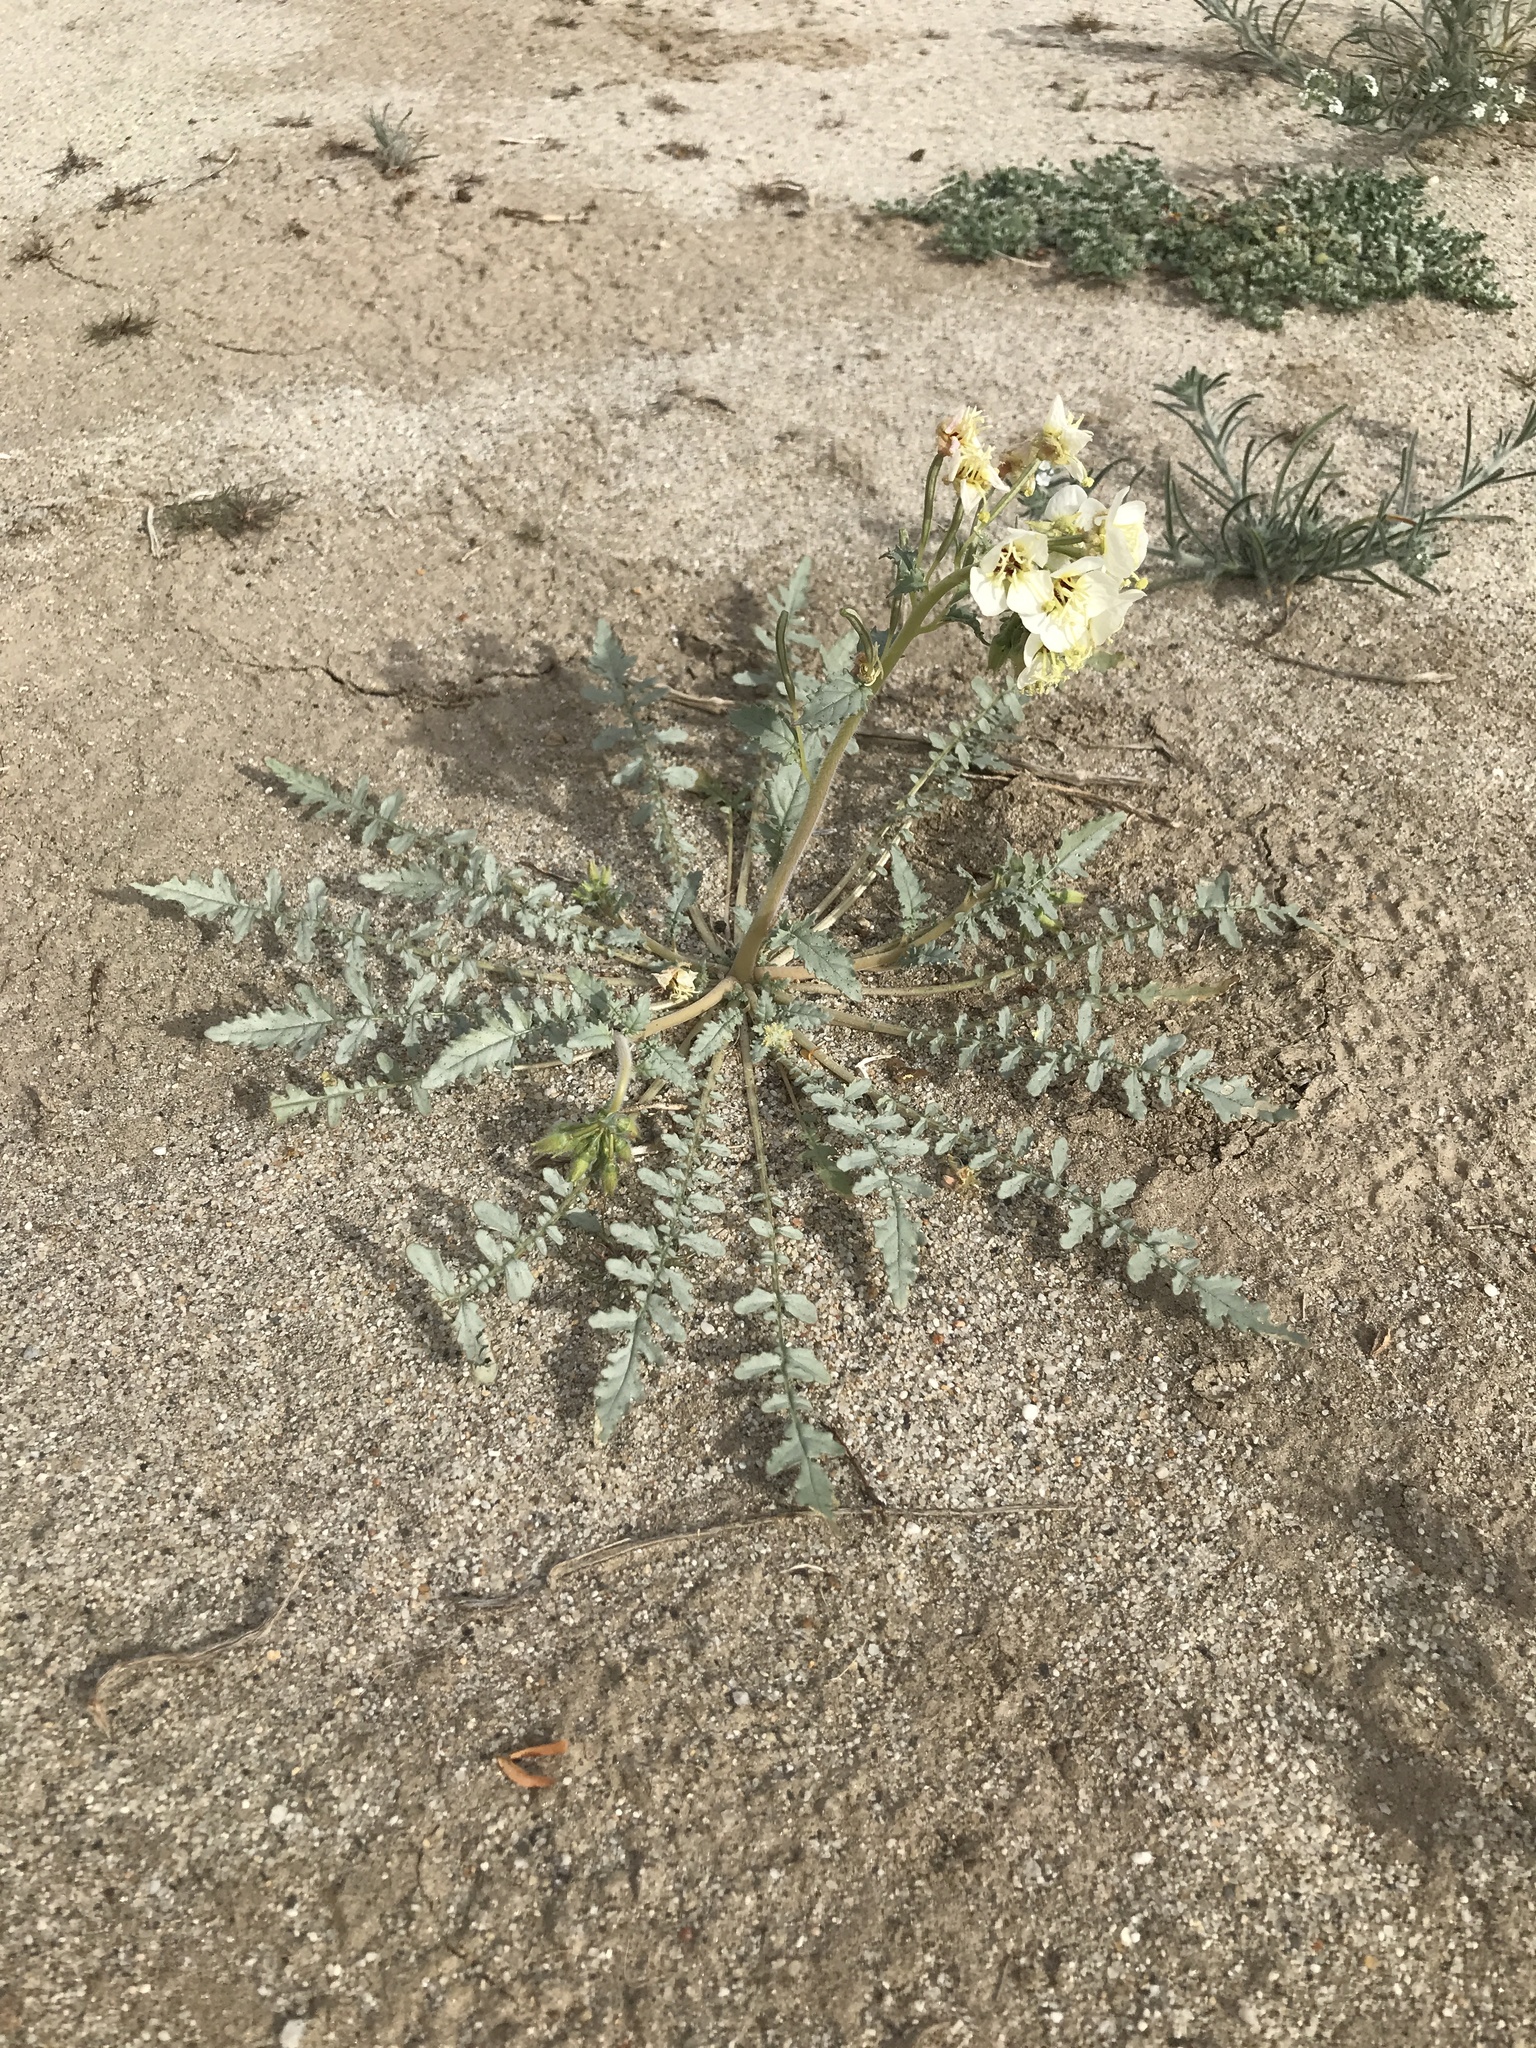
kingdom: Plantae
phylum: Tracheophyta
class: Magnoliopsida
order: Myrtales
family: Onagraceae
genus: Chylismia
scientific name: Chylismia claviformis
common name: Browneyes
